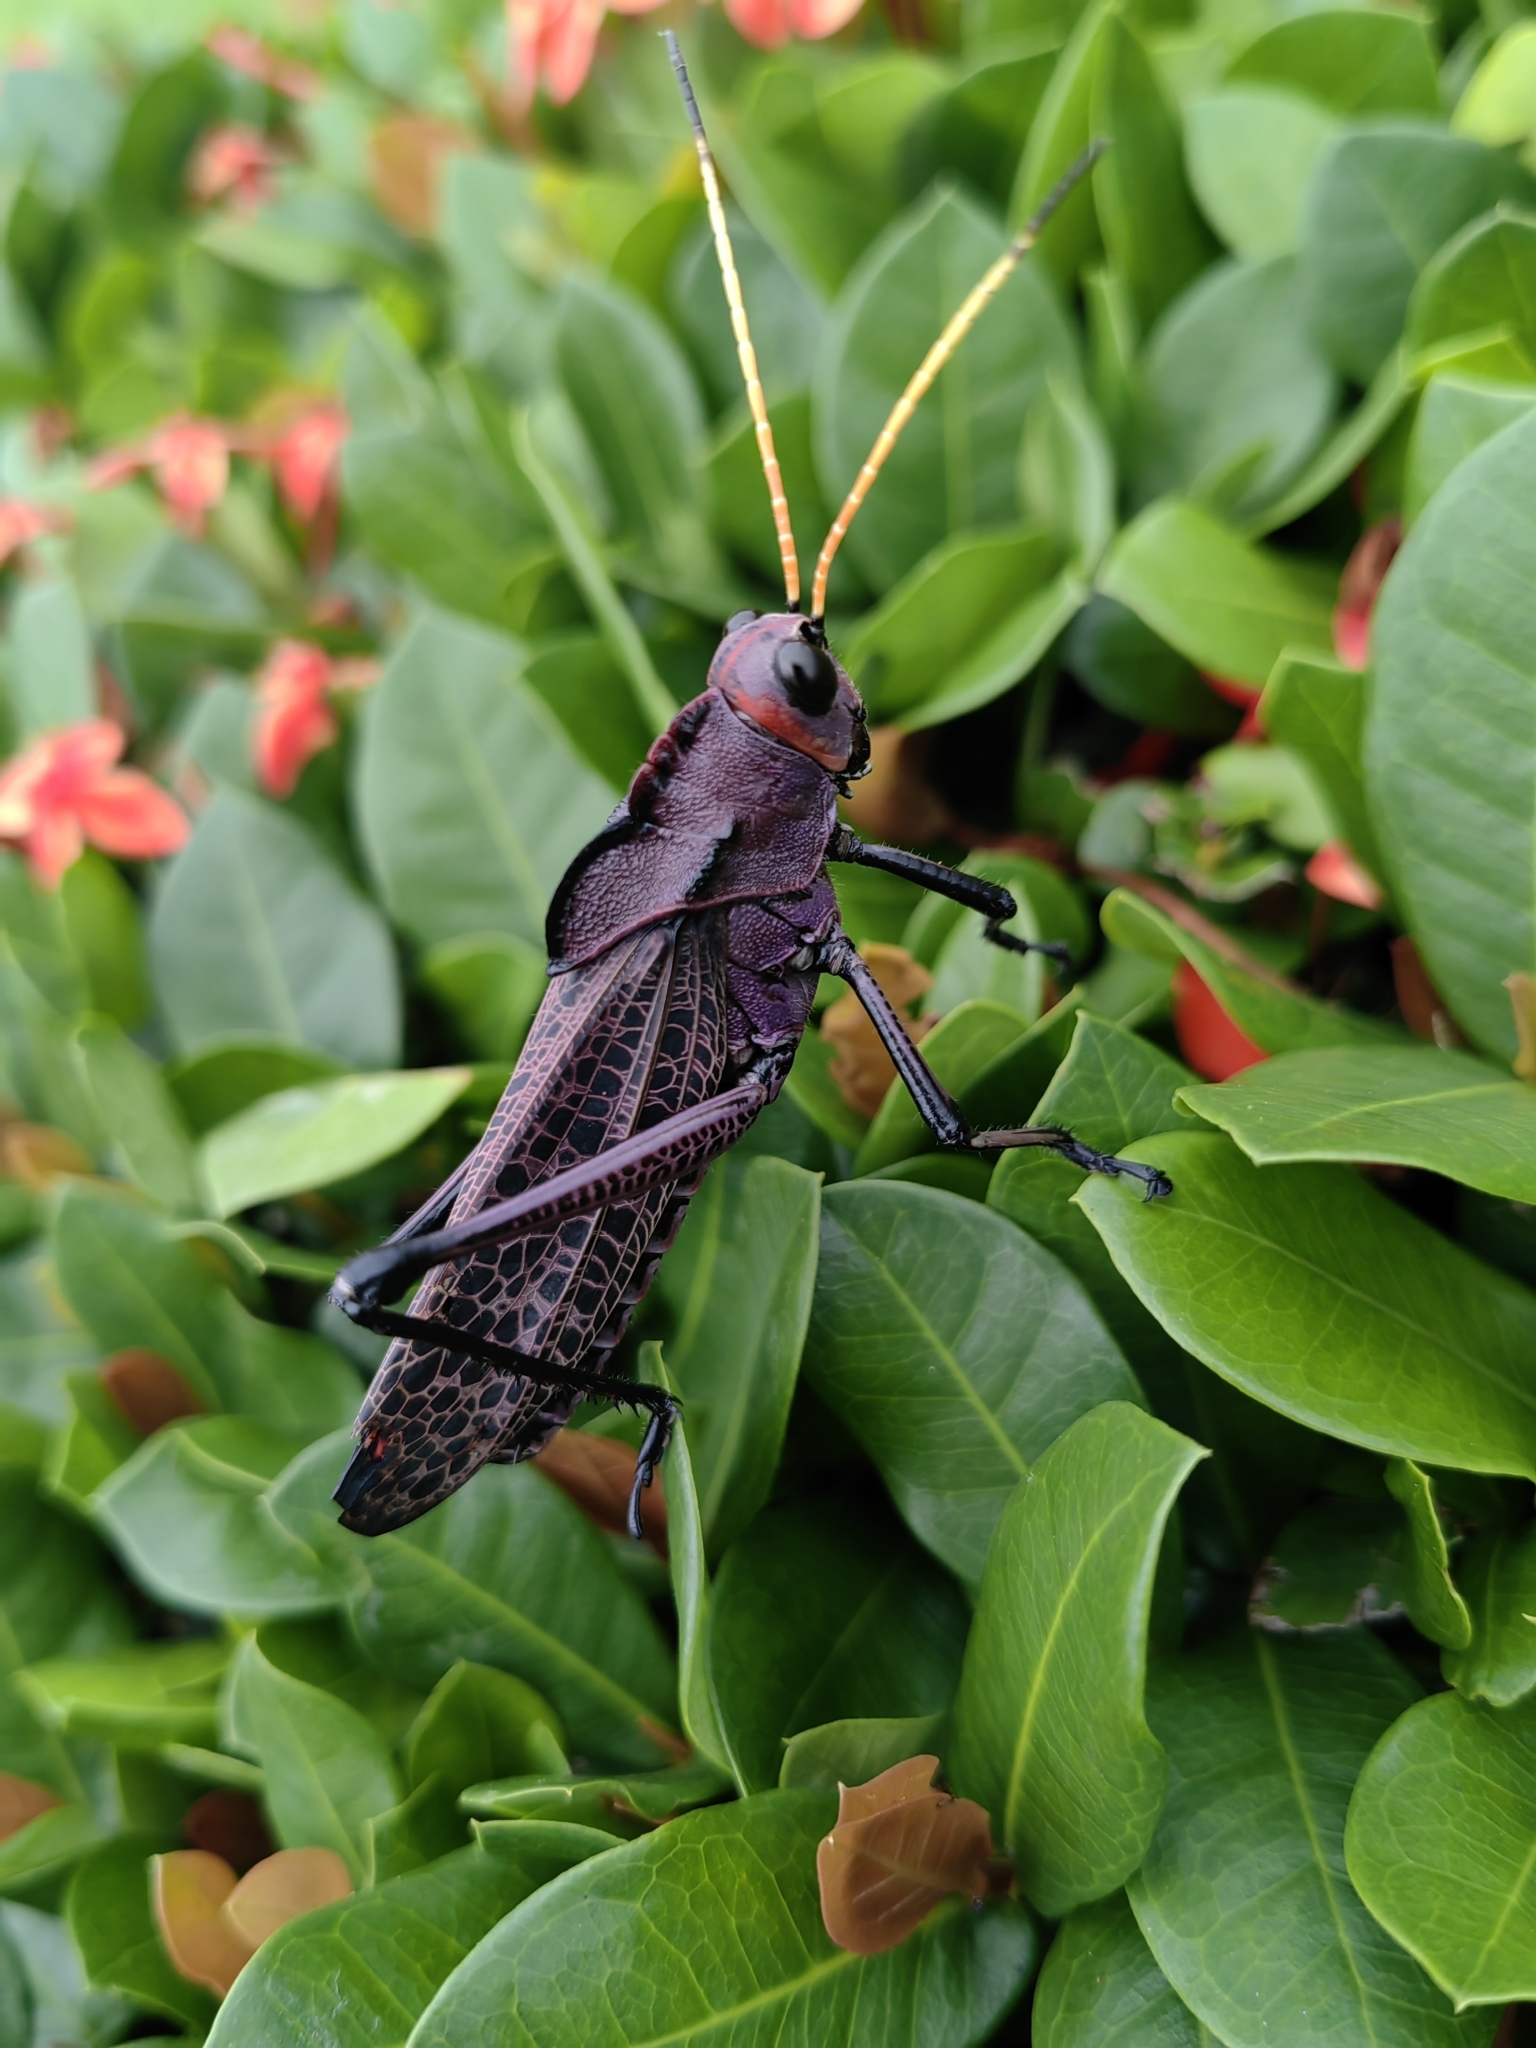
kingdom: Animalia
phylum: Arthropoda
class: Insecta
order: Orthoptera
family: Romaleidae
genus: Romalea
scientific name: Romalea
